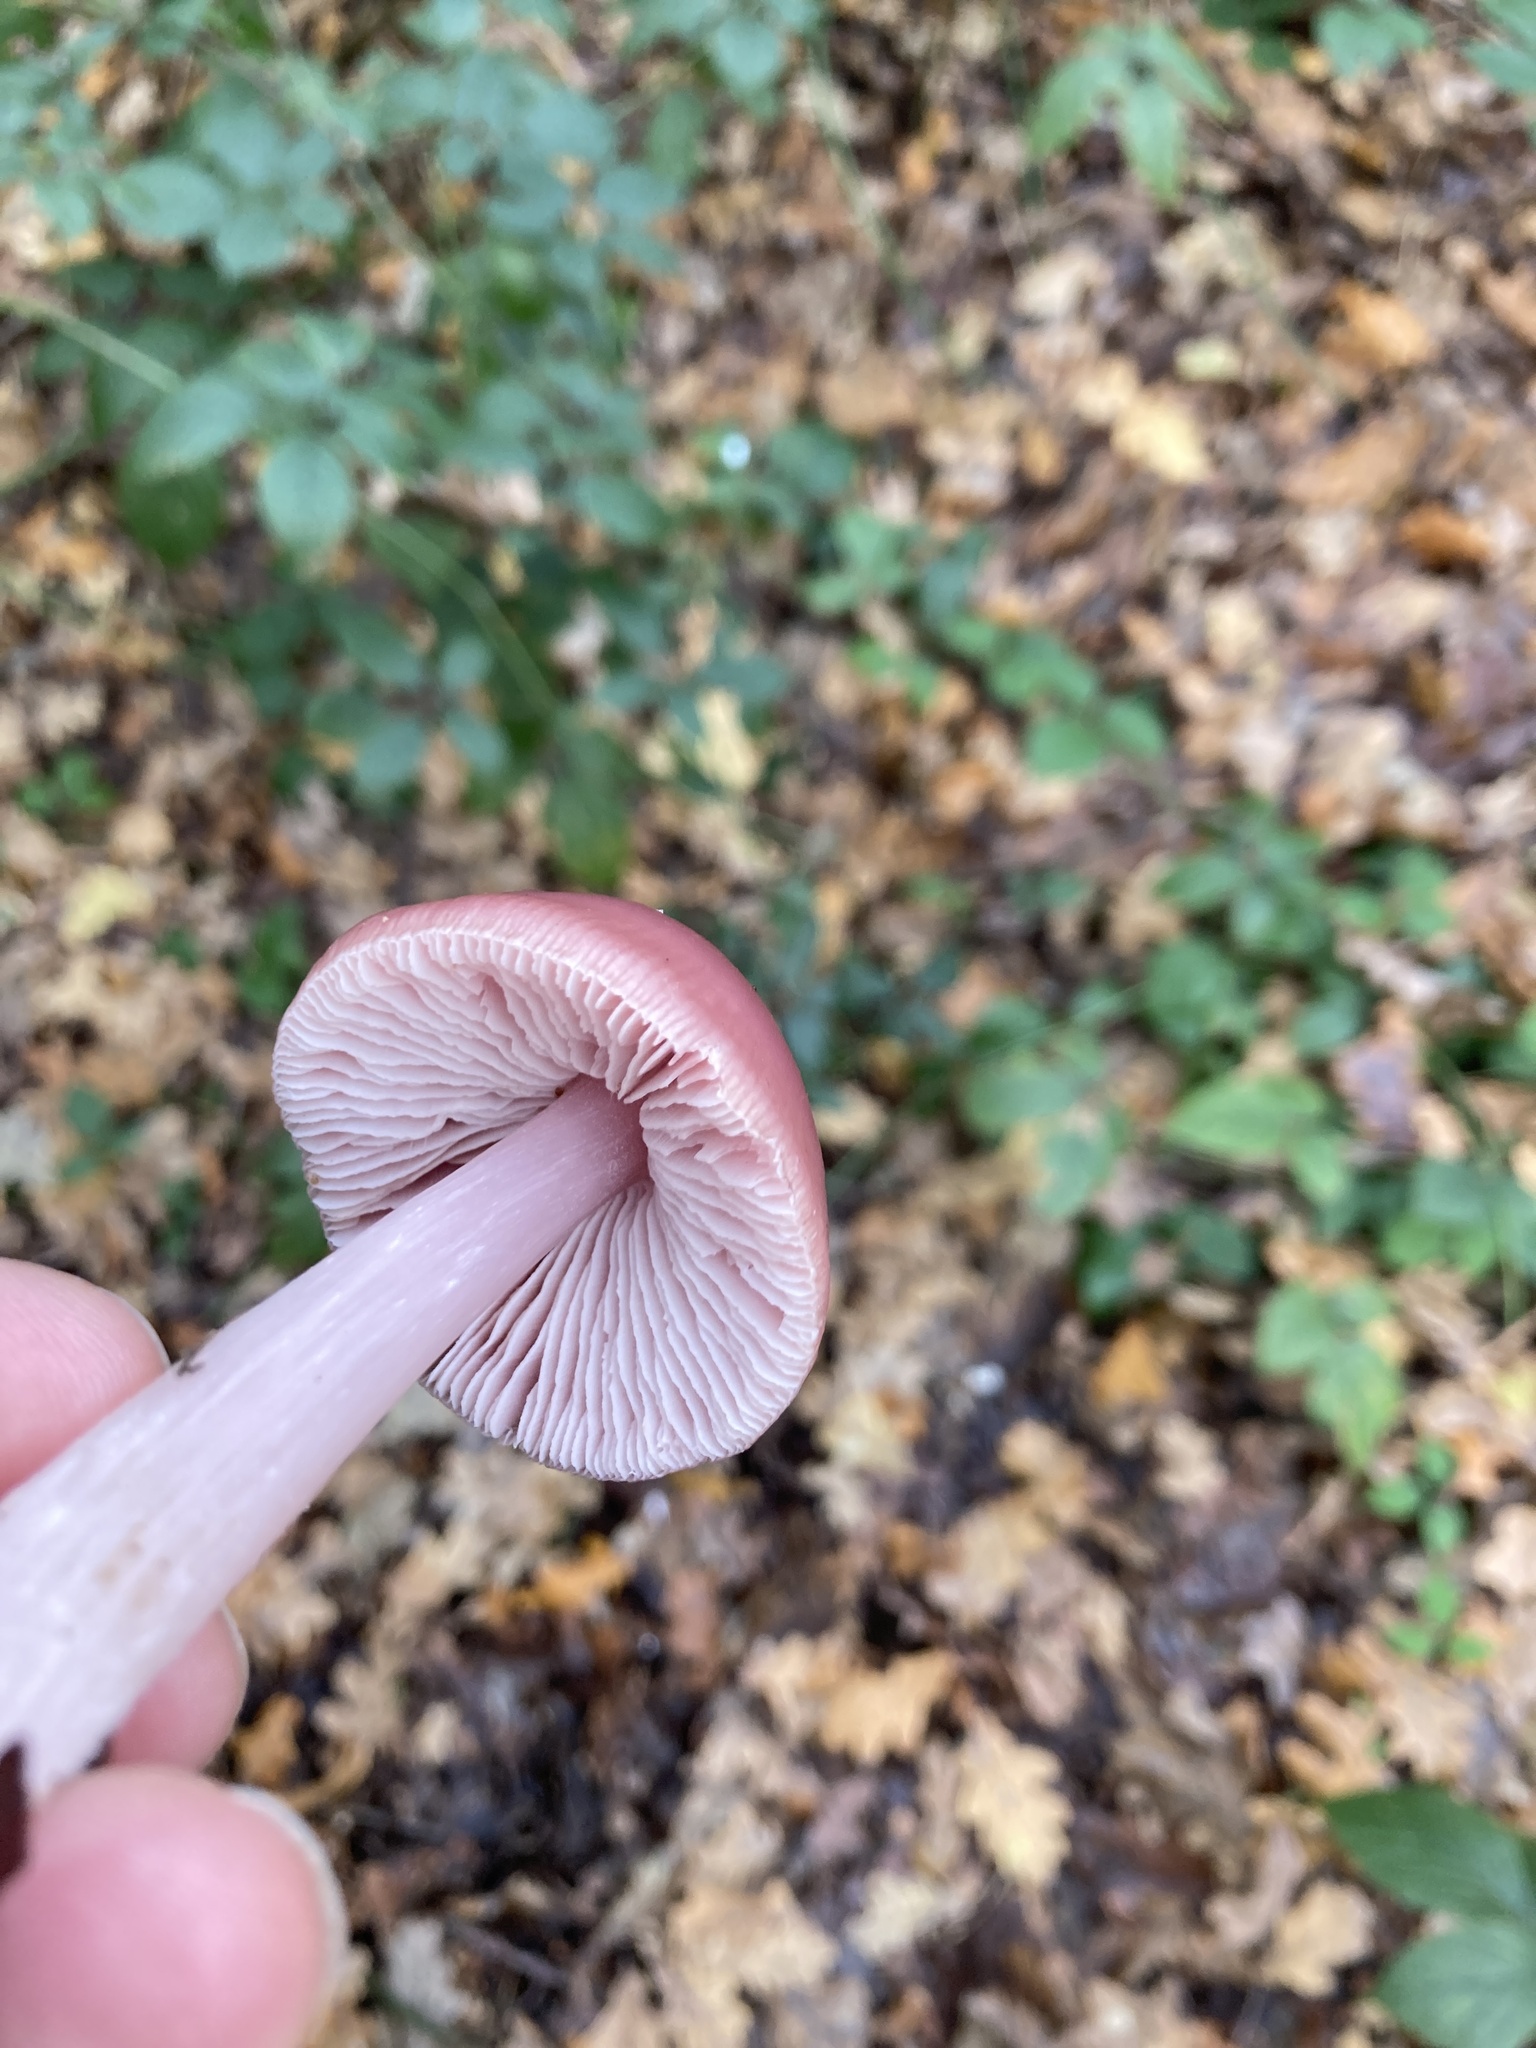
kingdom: Fungi
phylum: Basidiomycota
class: Agaricomycetes
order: Agaricales
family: Mycenaceae
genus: Mycena
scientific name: Mycena rosea
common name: Rosy bonnet
